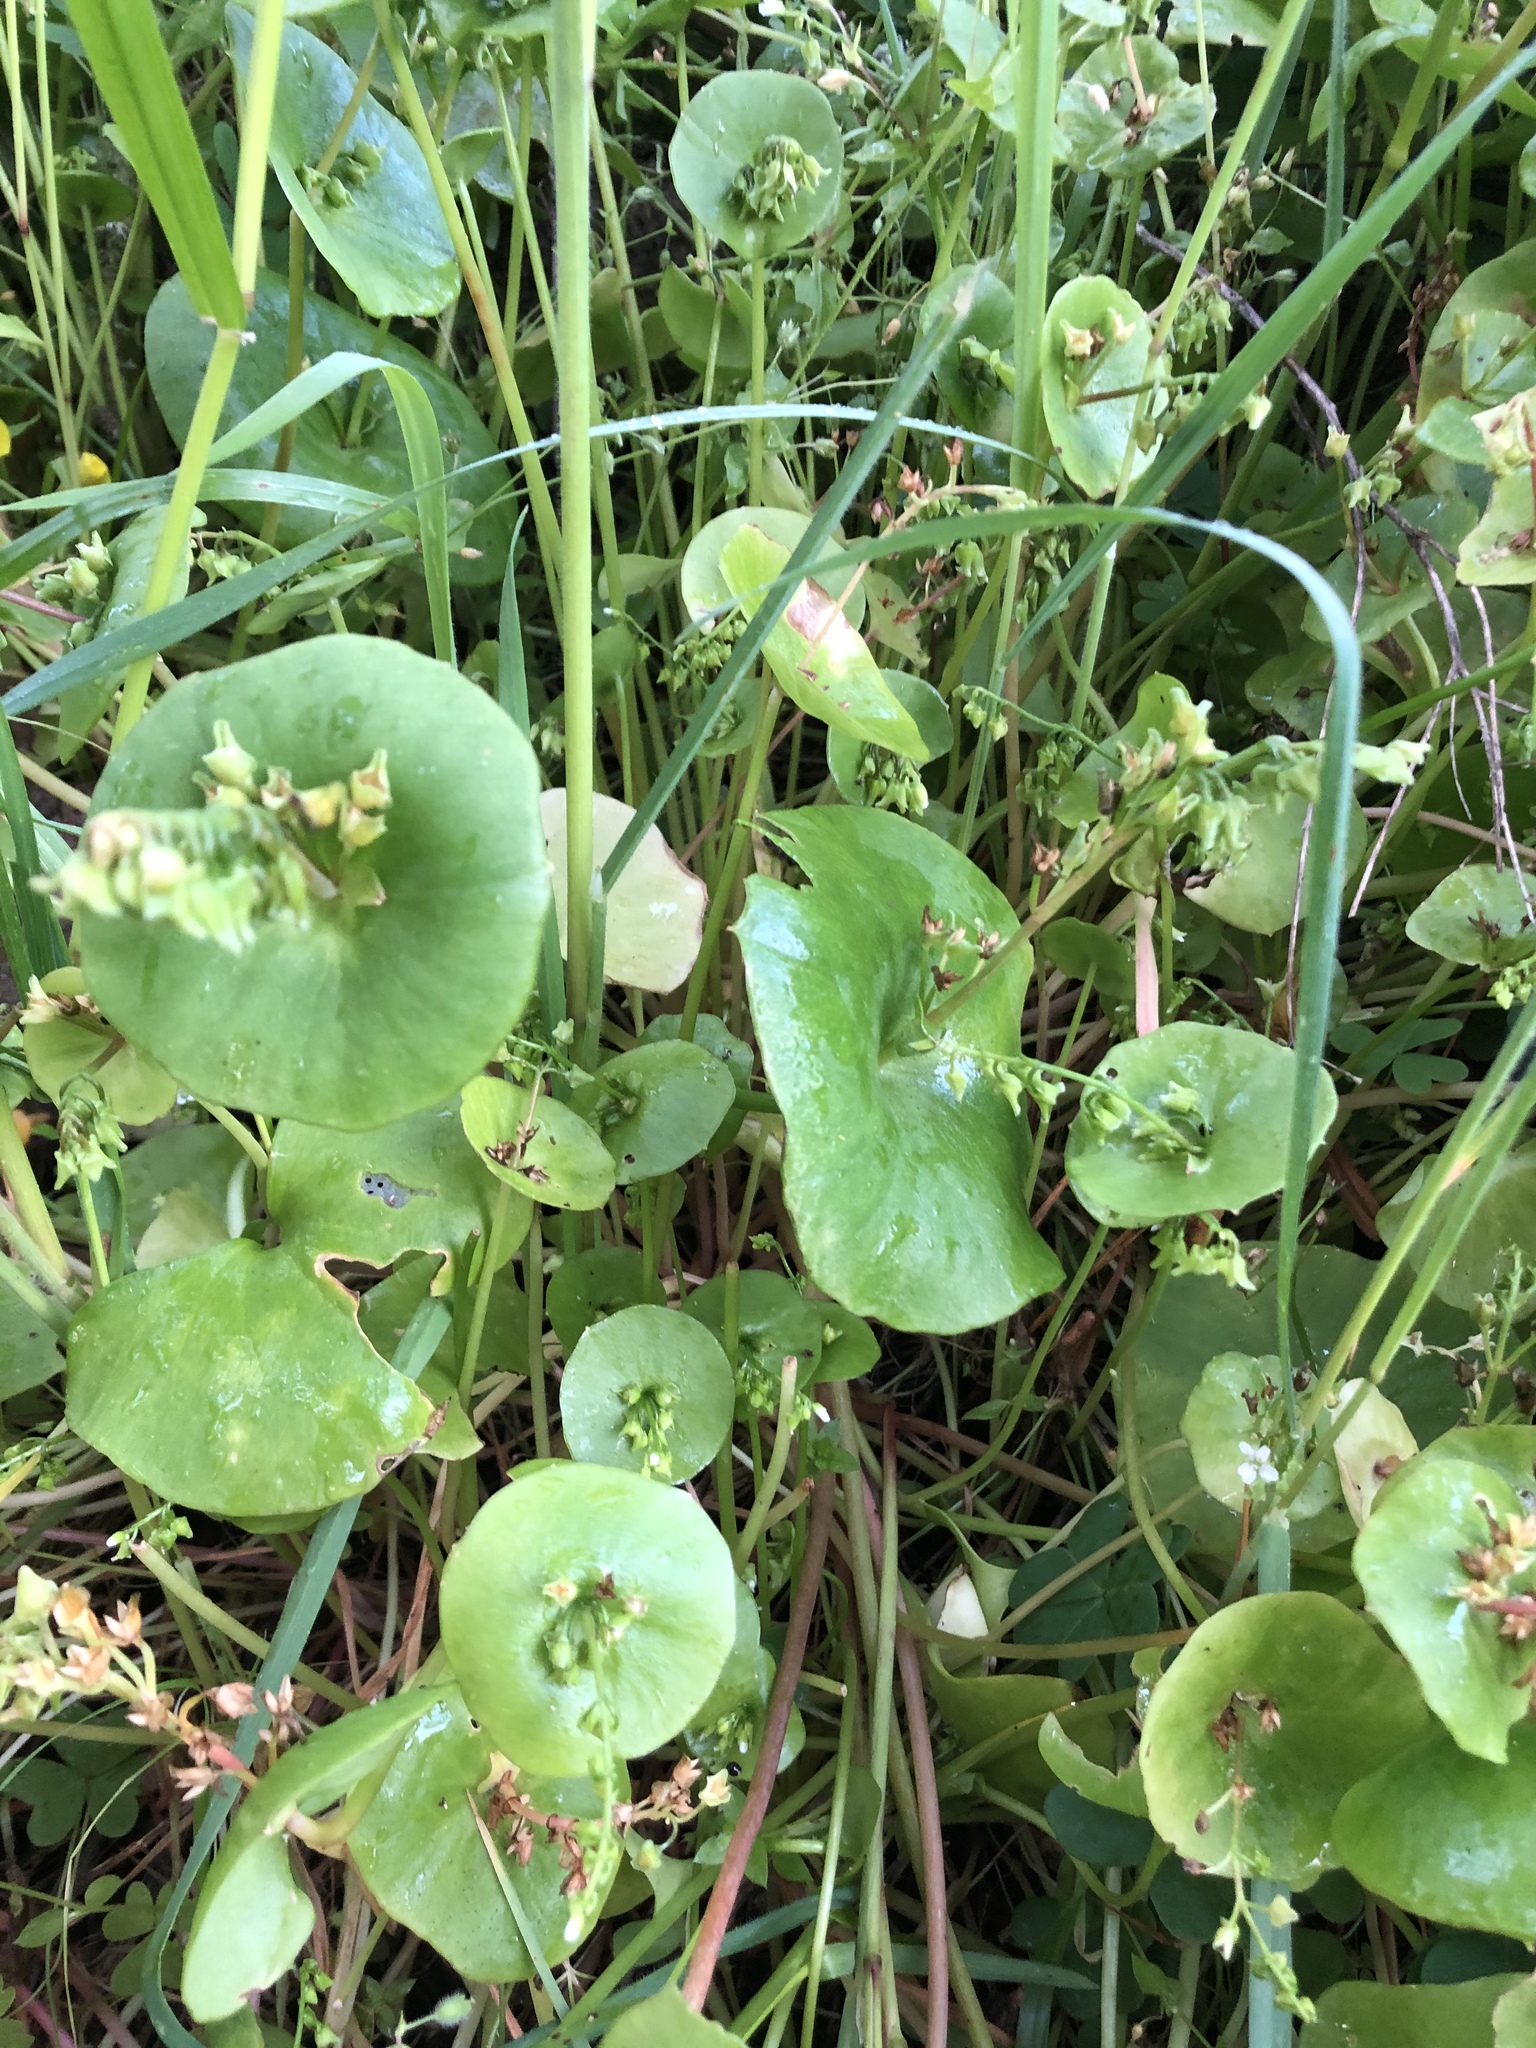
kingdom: Plantae
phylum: Tracheophyta
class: Magnoliopsida
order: Caryophyllales
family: Montiaceae
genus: Claytonia
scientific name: Claytonia perfoliata
